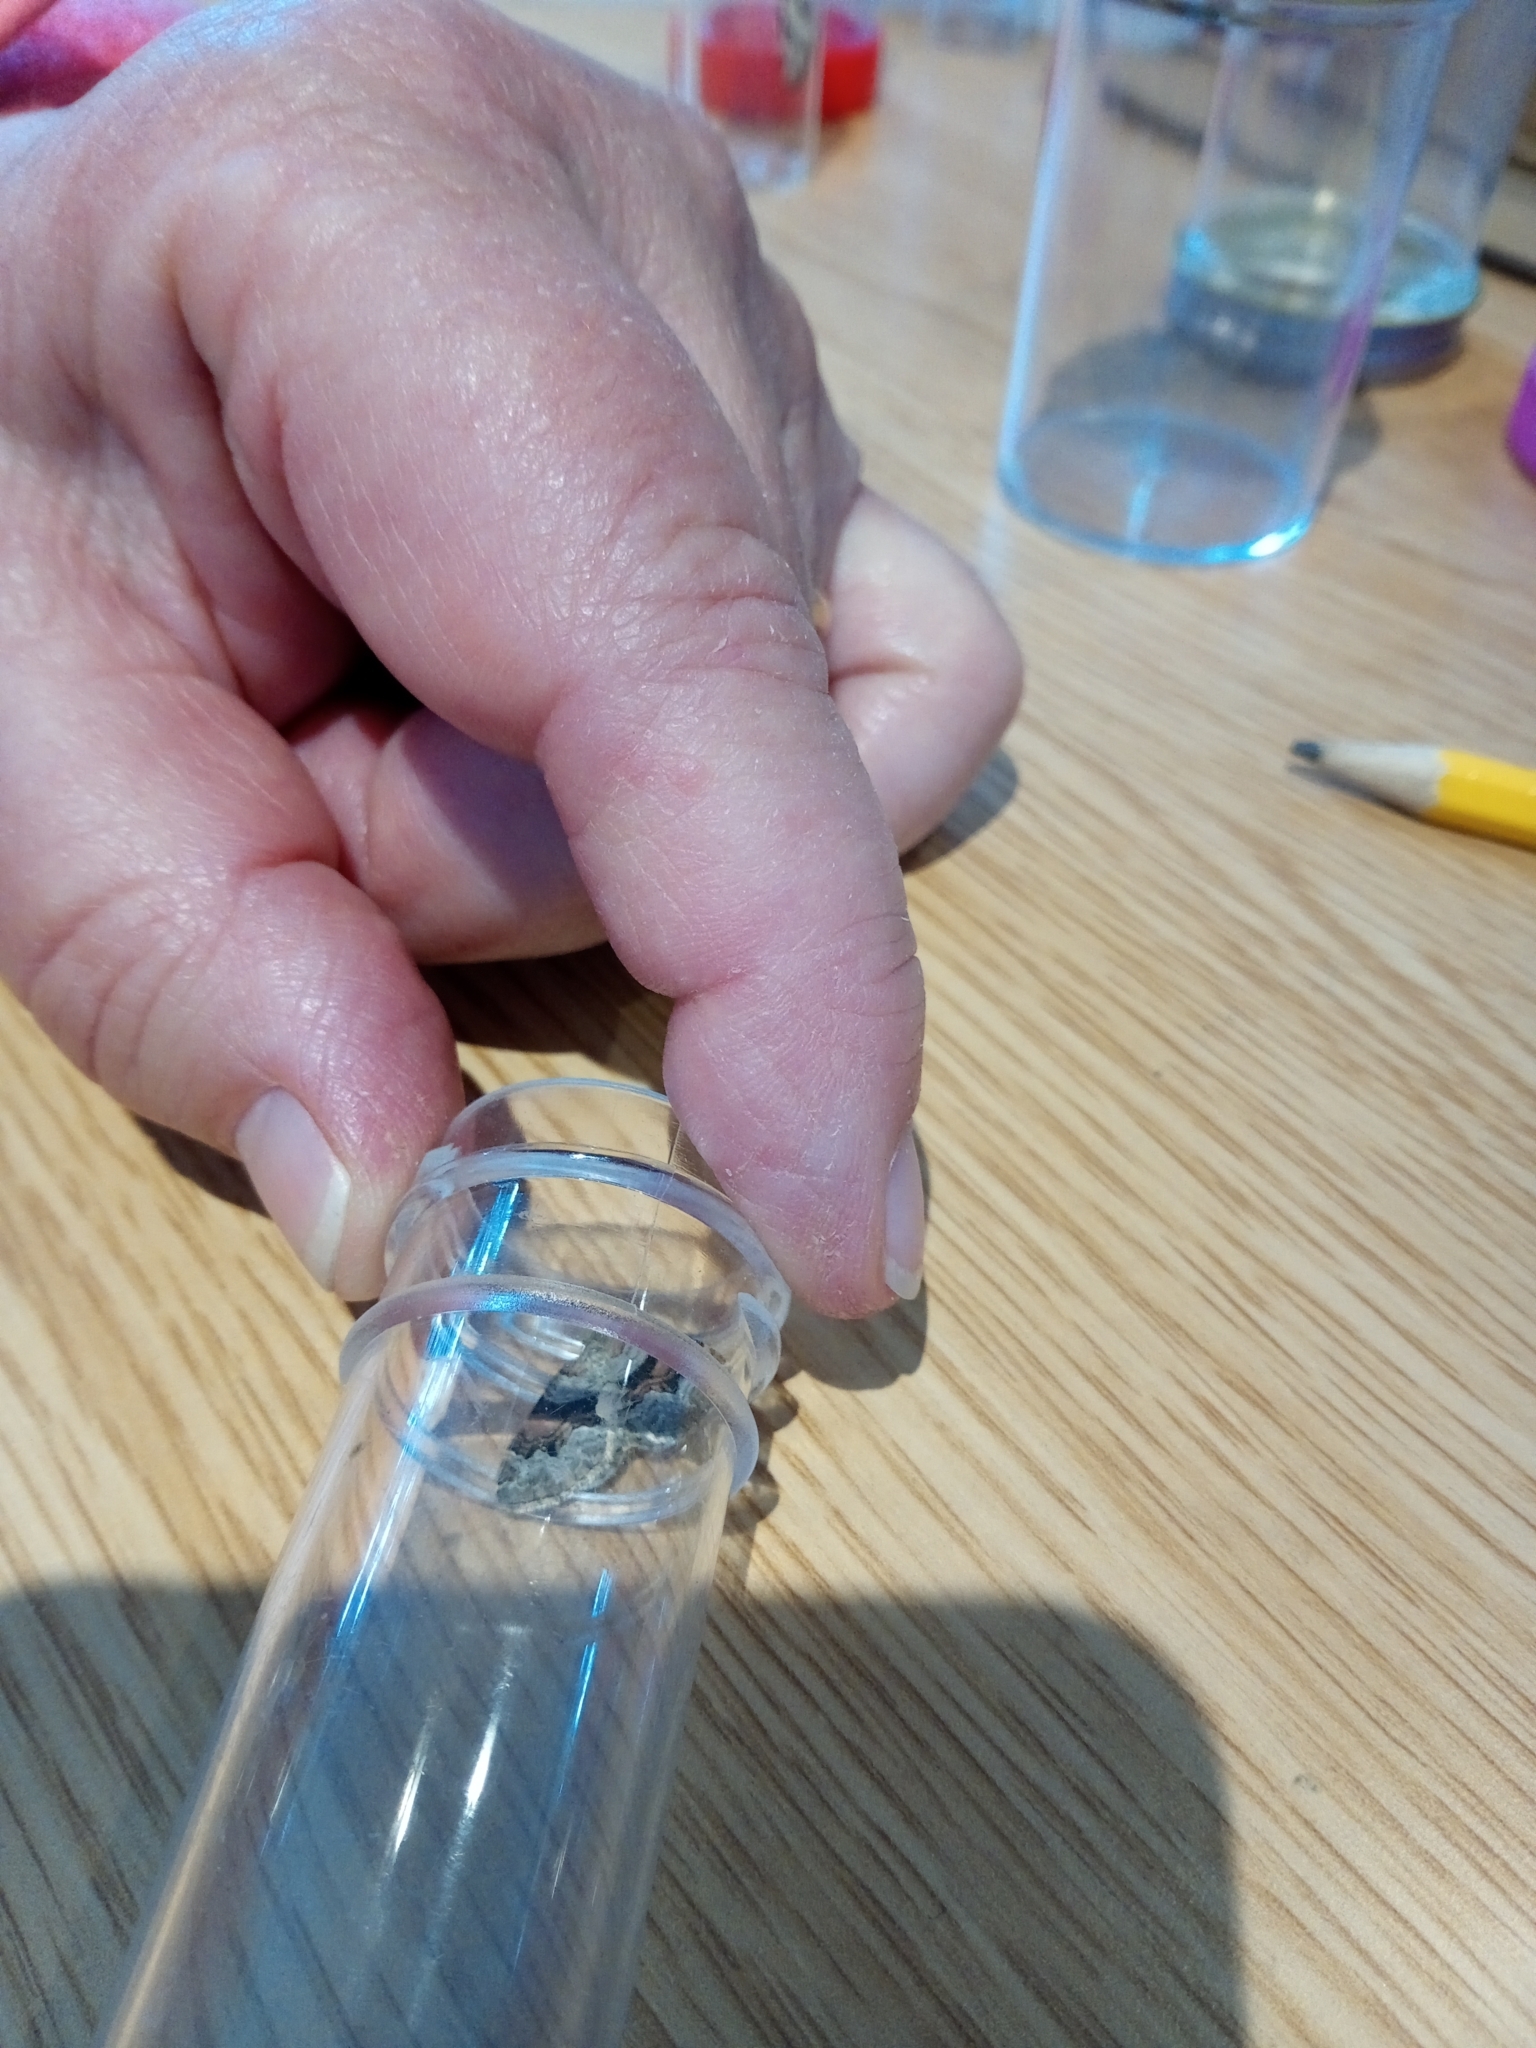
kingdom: Animalia
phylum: Arthropoda
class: Insecta
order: Lepidoptera
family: Geometridae
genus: Xanthorhoe
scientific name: Xanthorhoe designata
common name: Flame carpet
